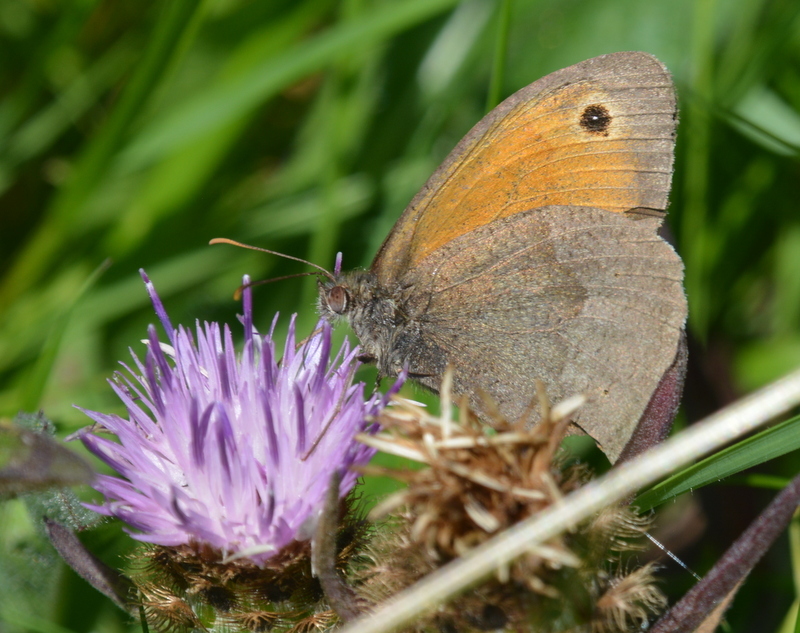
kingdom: Animalia
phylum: Arthropoda
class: Insecta
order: Lepidoptera
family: Nymphalidae
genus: Maniola
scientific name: Maniola jurtina
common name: Meadow brown
